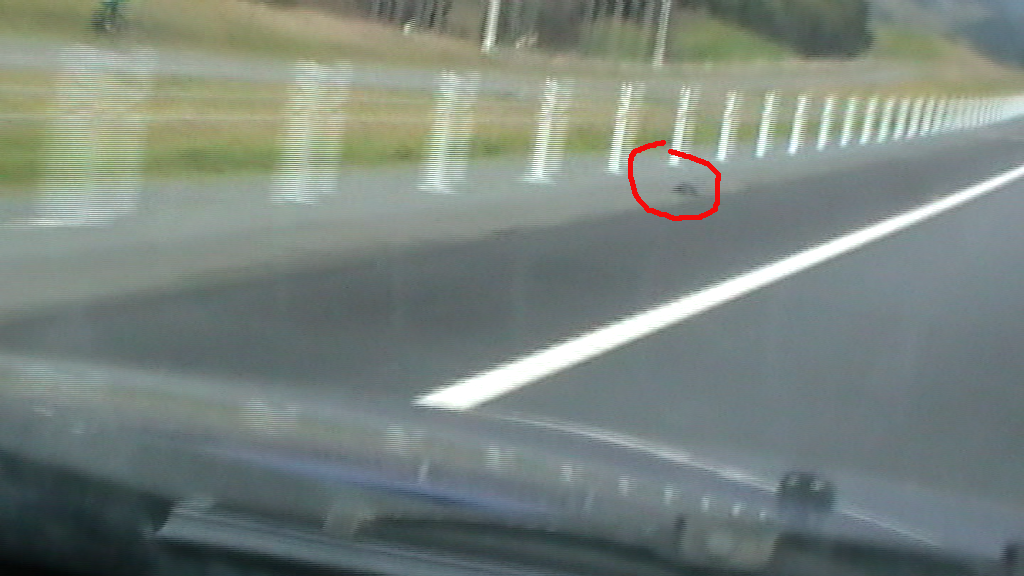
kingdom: Animalia
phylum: Chordata
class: Aves
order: Gruiformes
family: Rallidae
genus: Porphyrio
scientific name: Porphyrio melanotus
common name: Australasian swamphen
